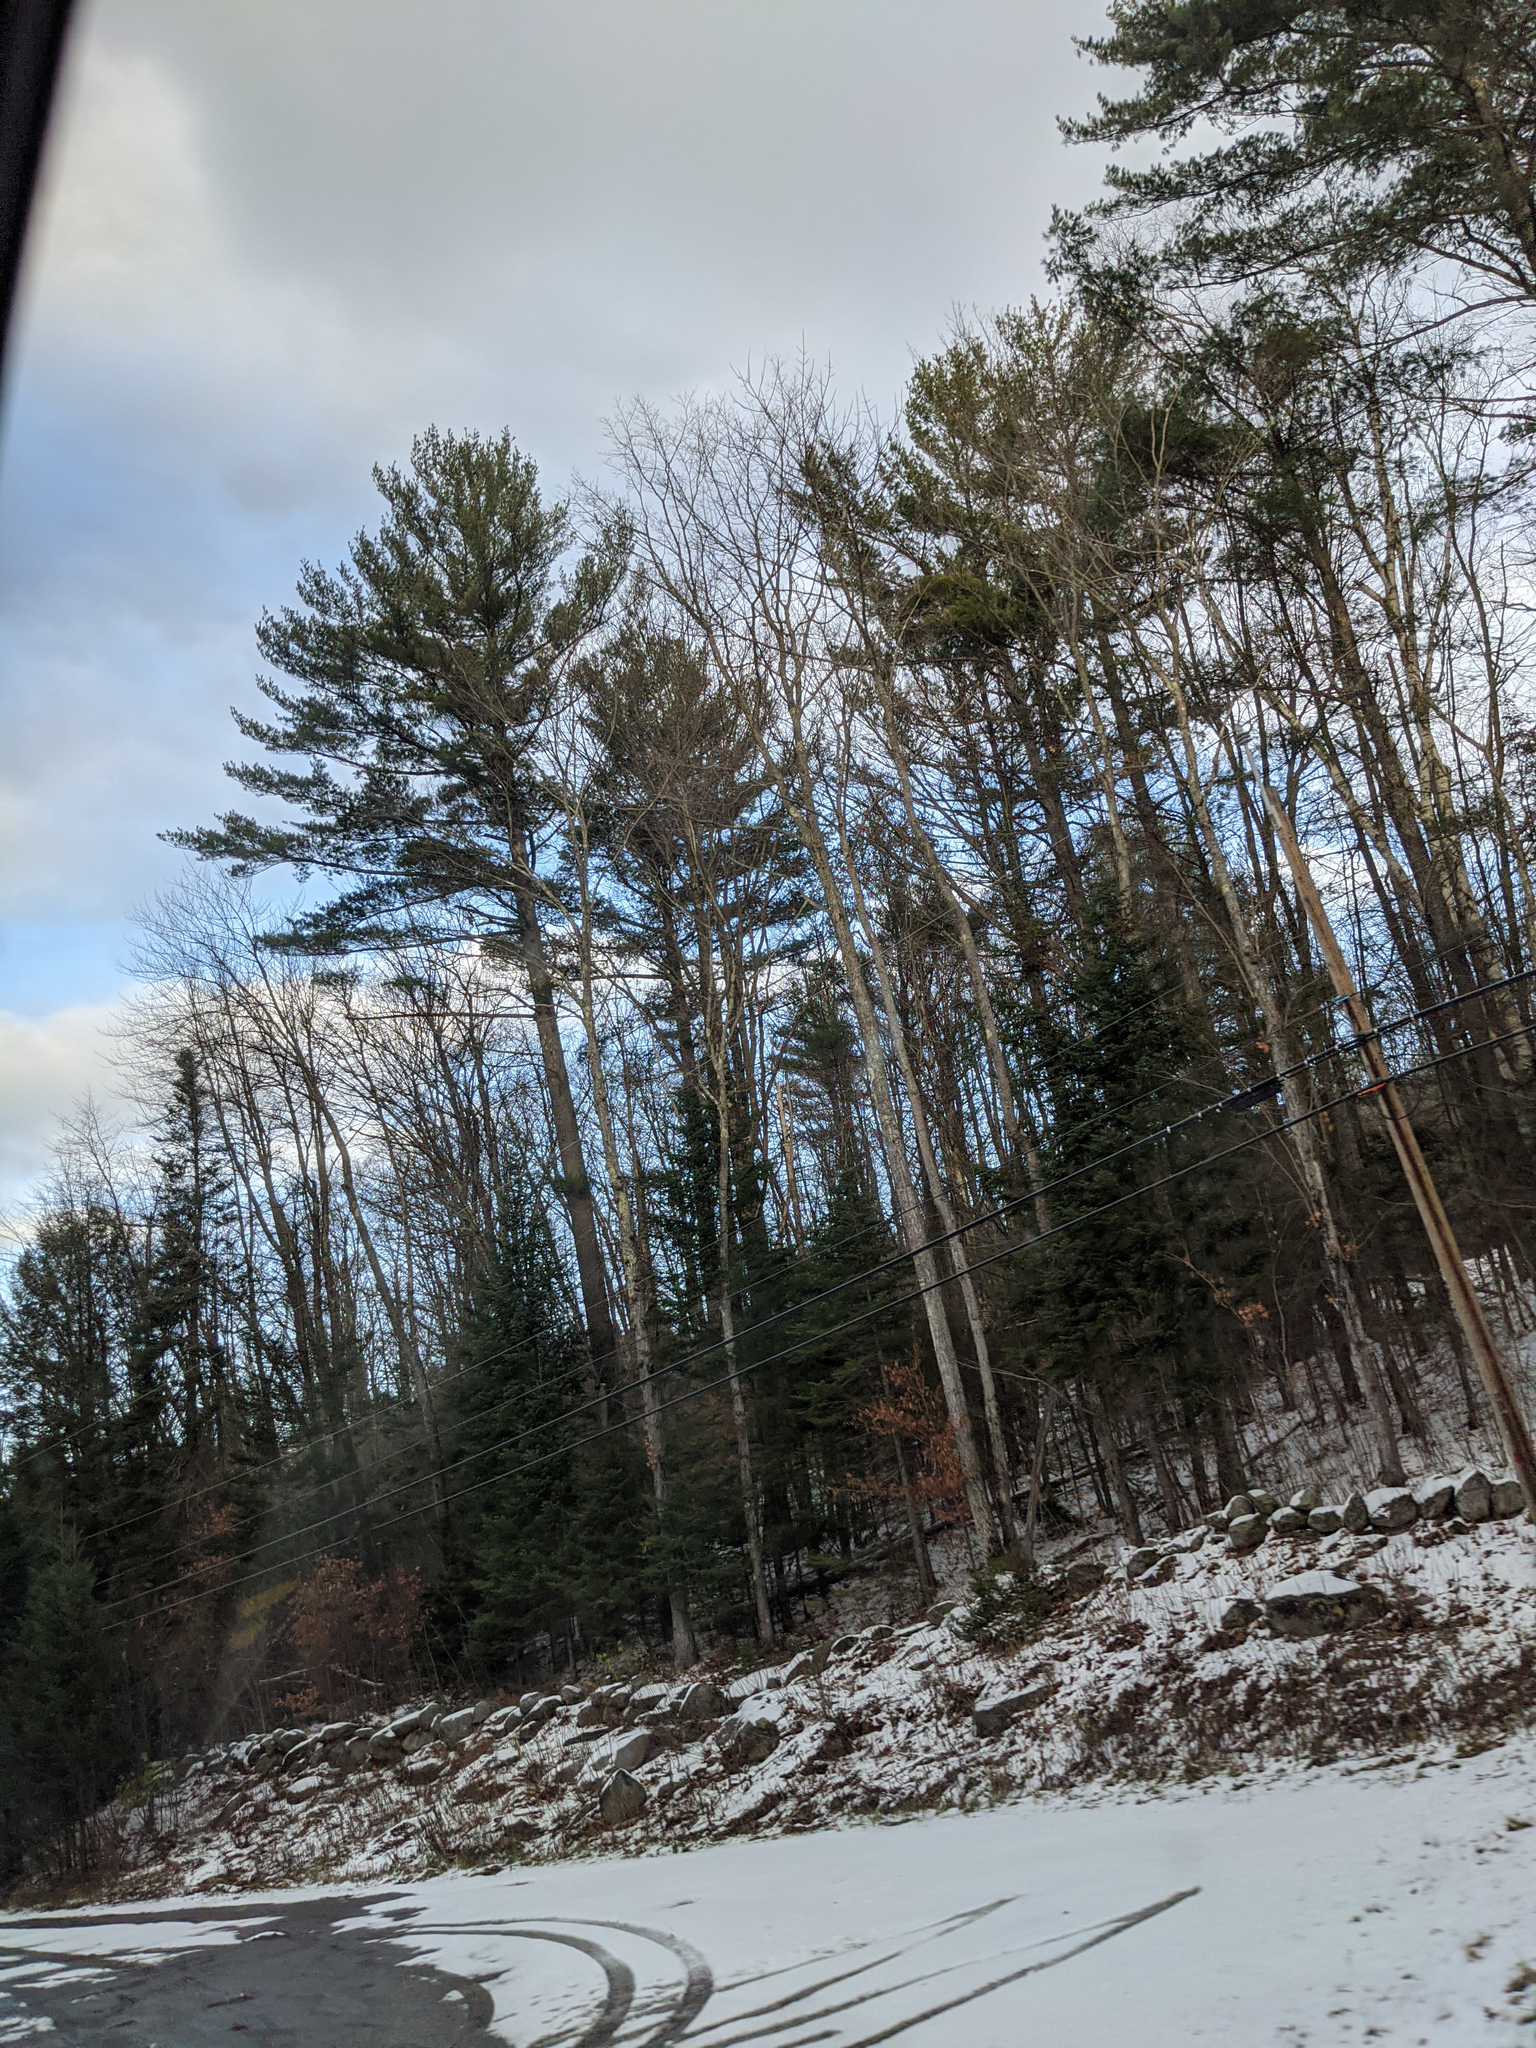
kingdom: Plantae
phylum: Tracheophyta
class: Pinopsida
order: Pinales
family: Pinaceae
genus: Pinus
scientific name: Pinus strobus
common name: Weymouth pine
